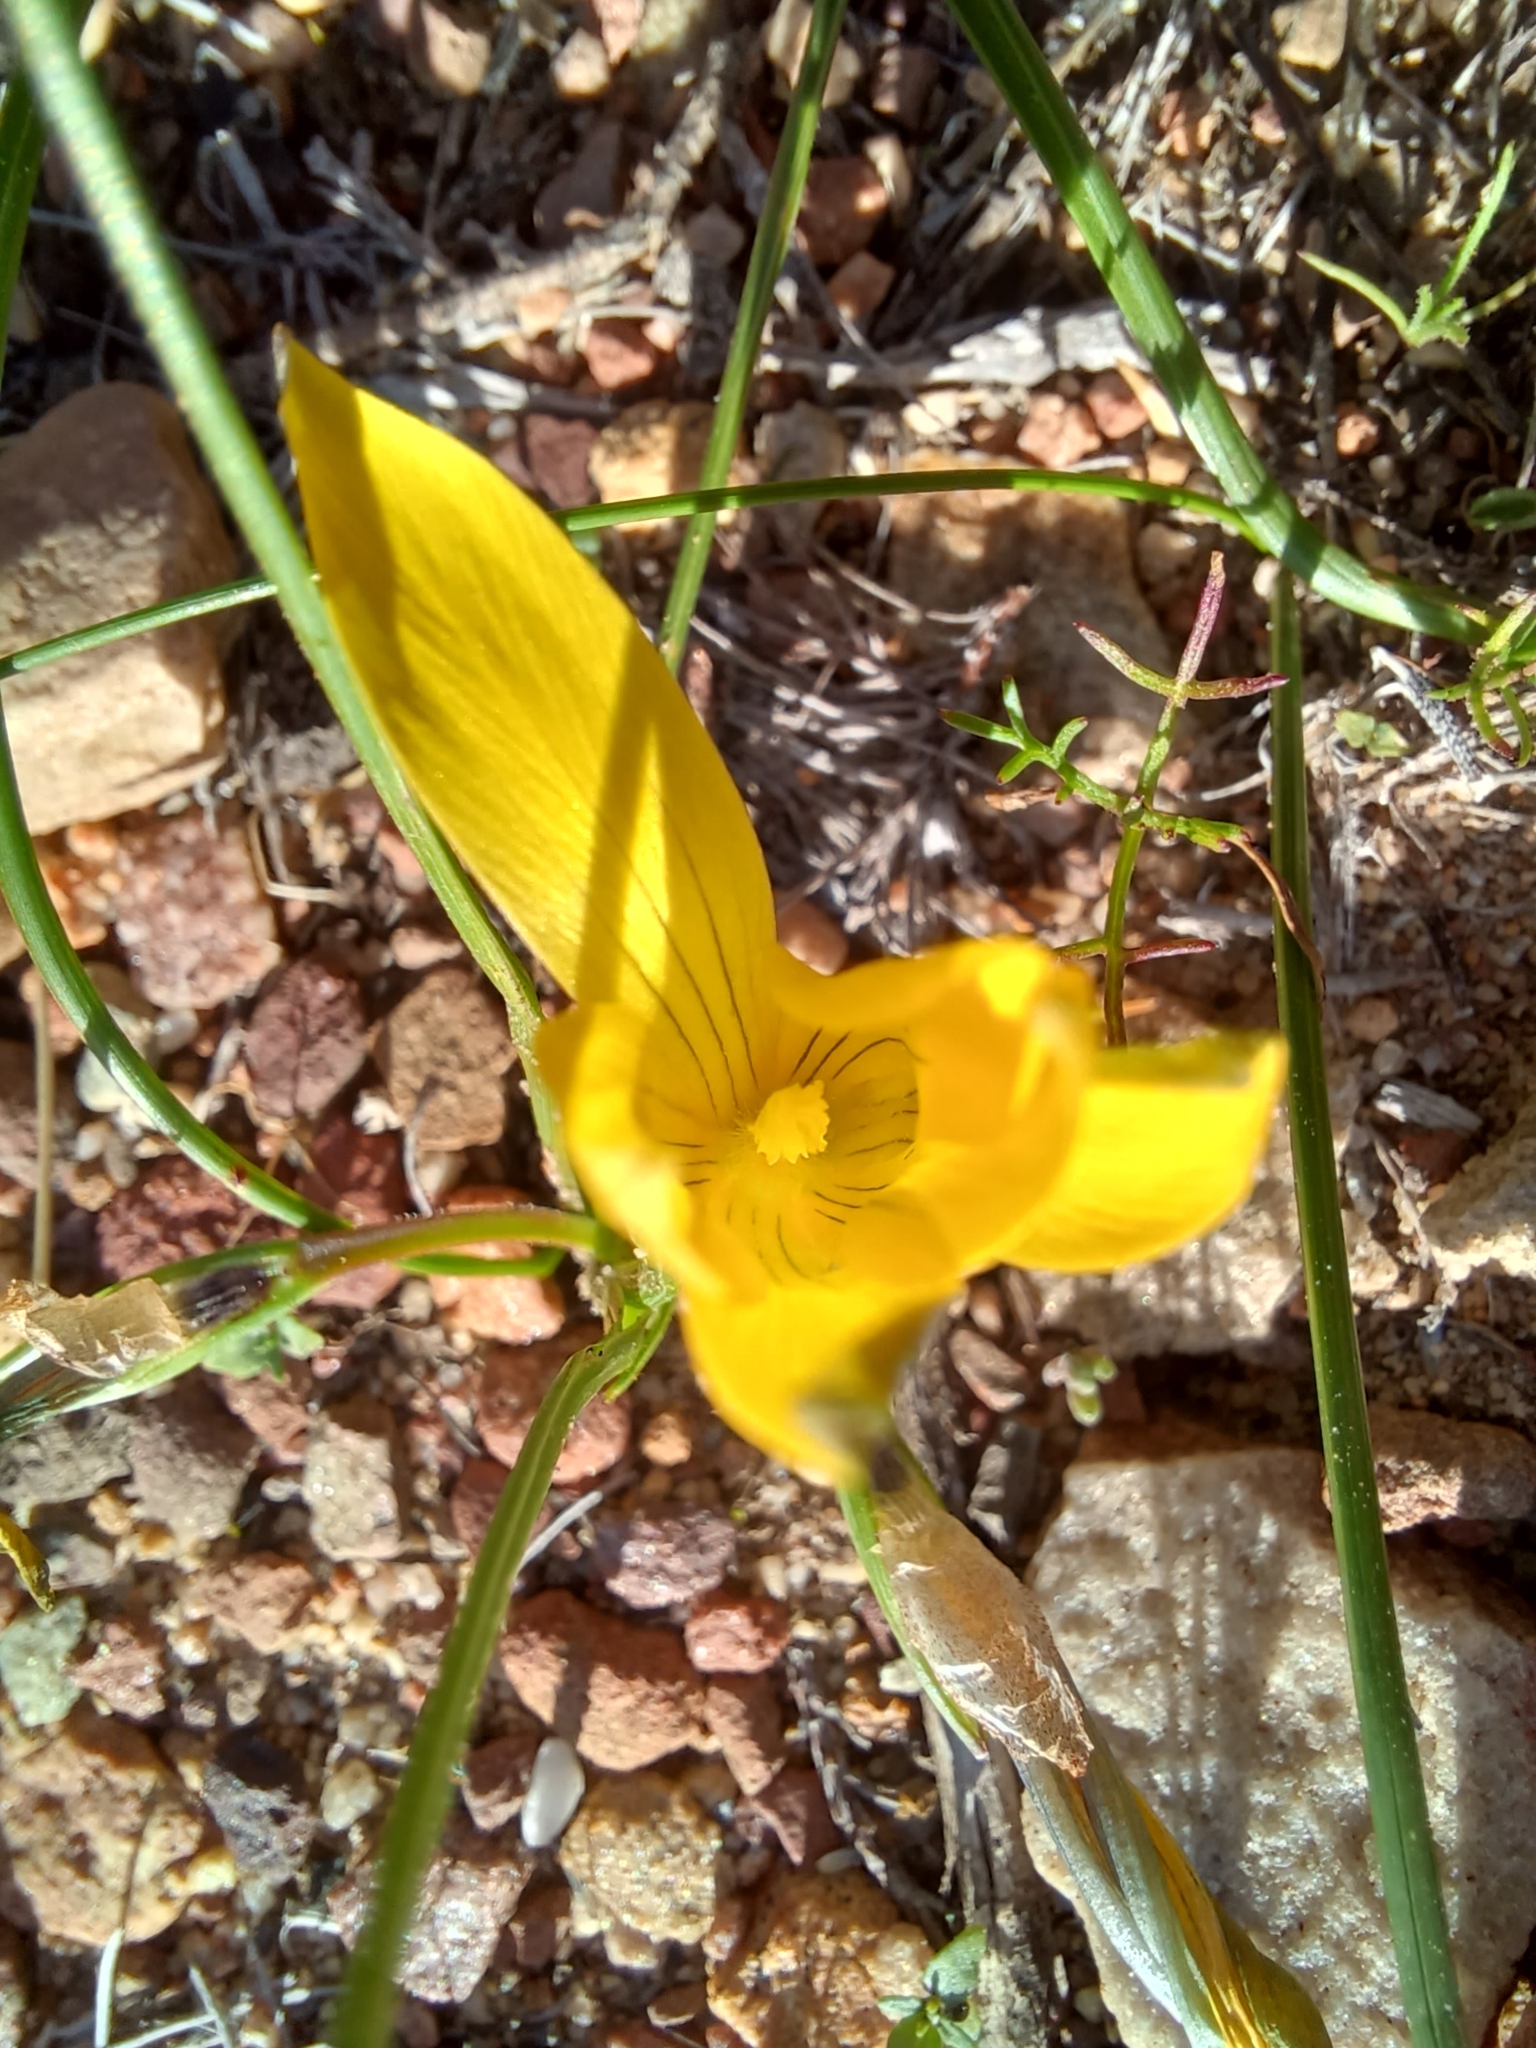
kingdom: Plantae
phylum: Tracheophyta
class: Liliopsida
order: Asparagales
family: Iridaceae
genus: Romulea
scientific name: Romulea flava
